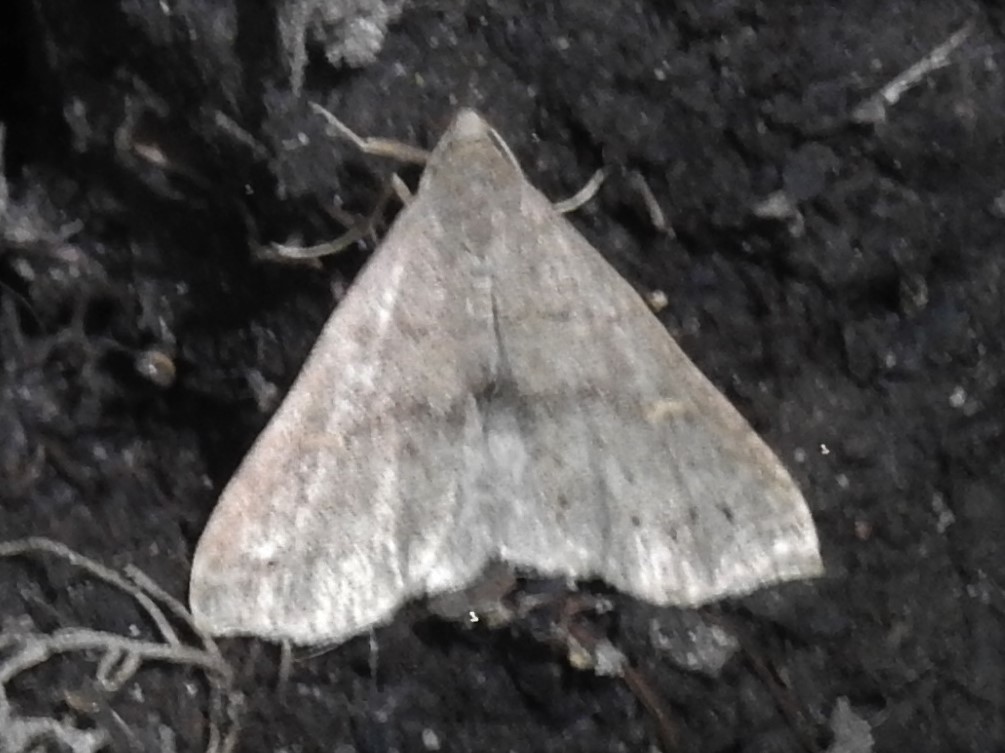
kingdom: Animalia
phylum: Arthropoda
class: Insecta
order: Lepidoptera
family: Erebidae
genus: Renia
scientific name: Renia adspergillus
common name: Speckled renia moth
